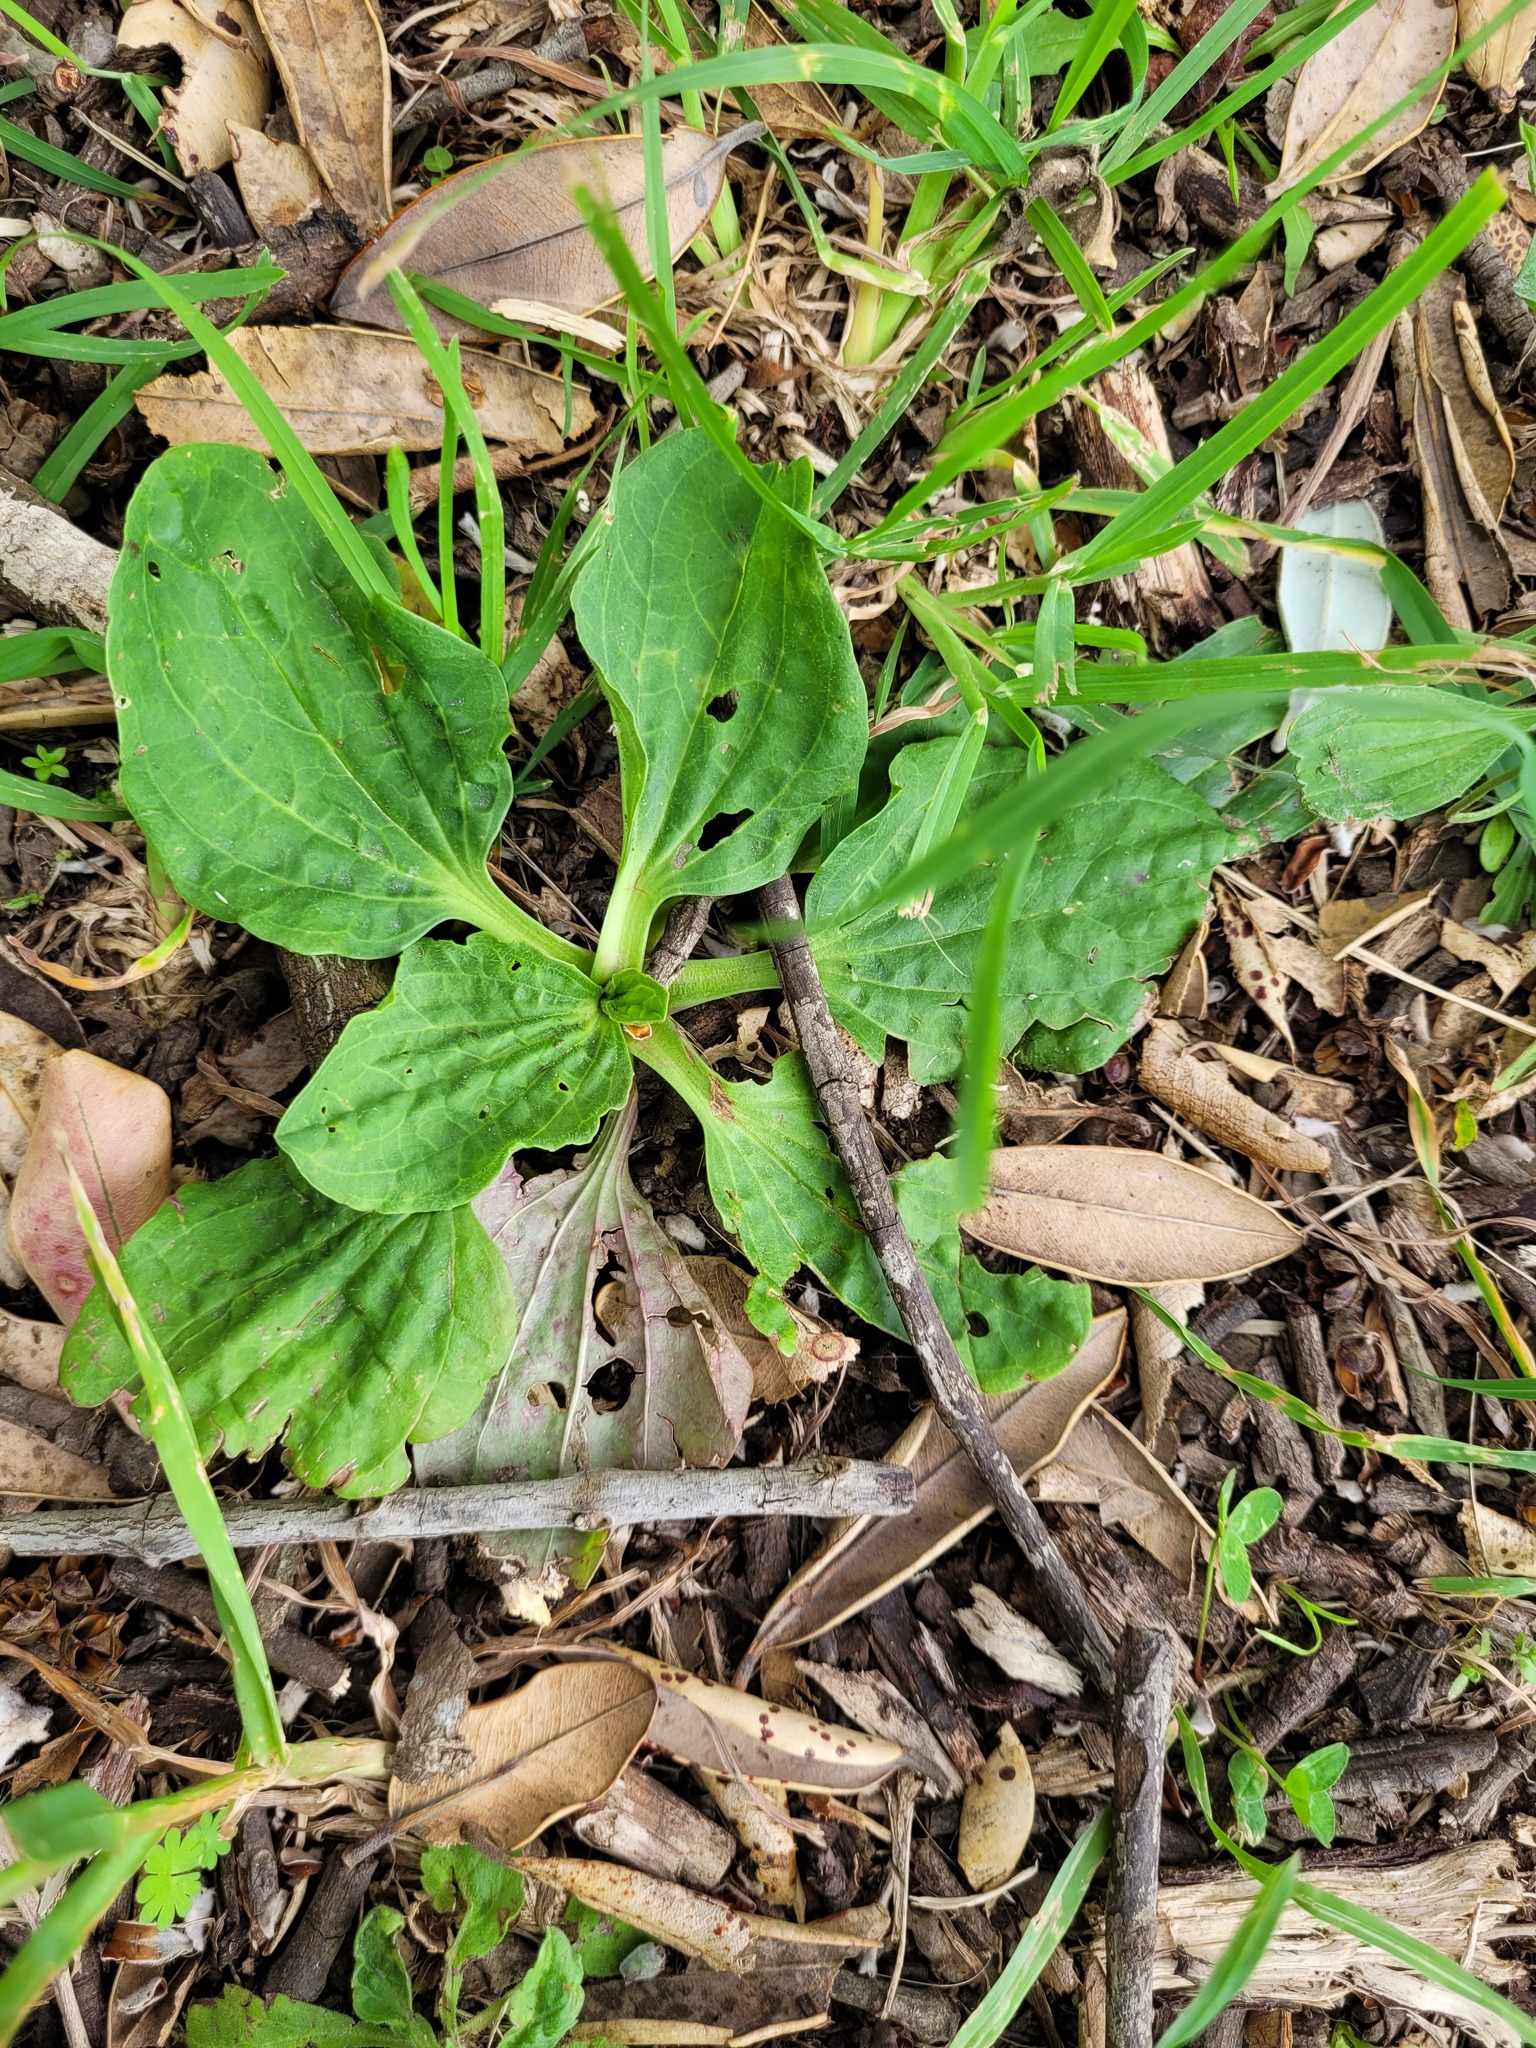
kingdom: Plantae
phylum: Tracheophyta
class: Magnoliopsida
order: Lamiales
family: Plantaginaceae
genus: Plantago
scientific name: Plantago major
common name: Common plantain
